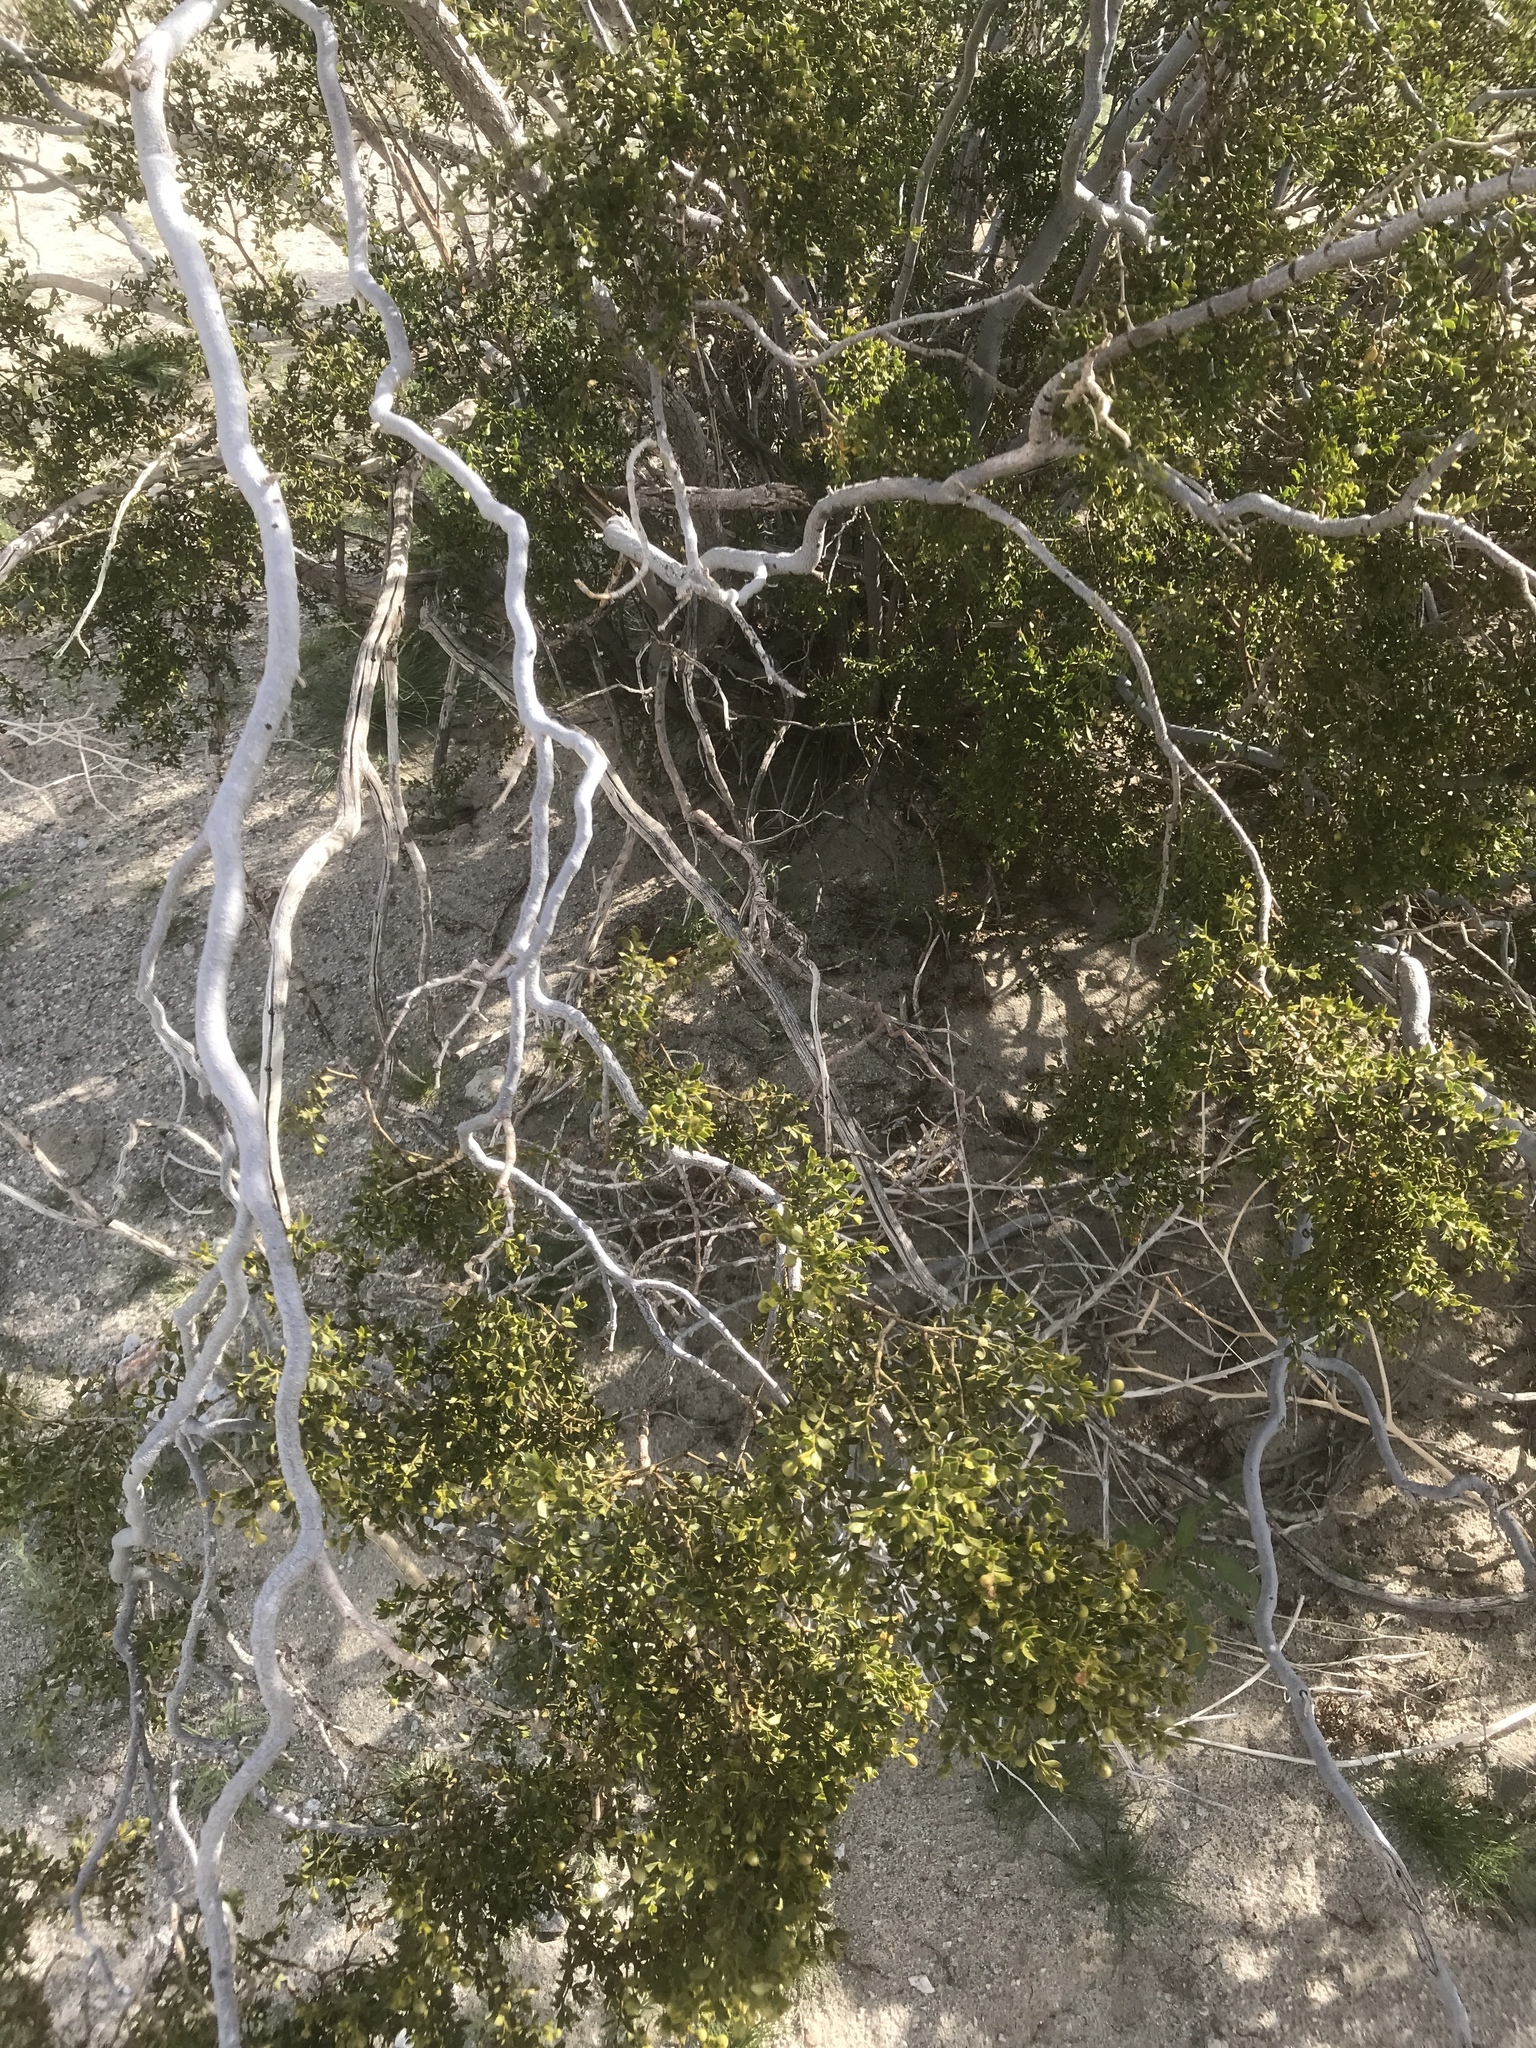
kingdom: Plantae
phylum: Tracheophyta
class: Magnoliopsida
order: Zygophyllales
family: Zygophyllaceae
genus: Larrea
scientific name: Larrea tridentata
